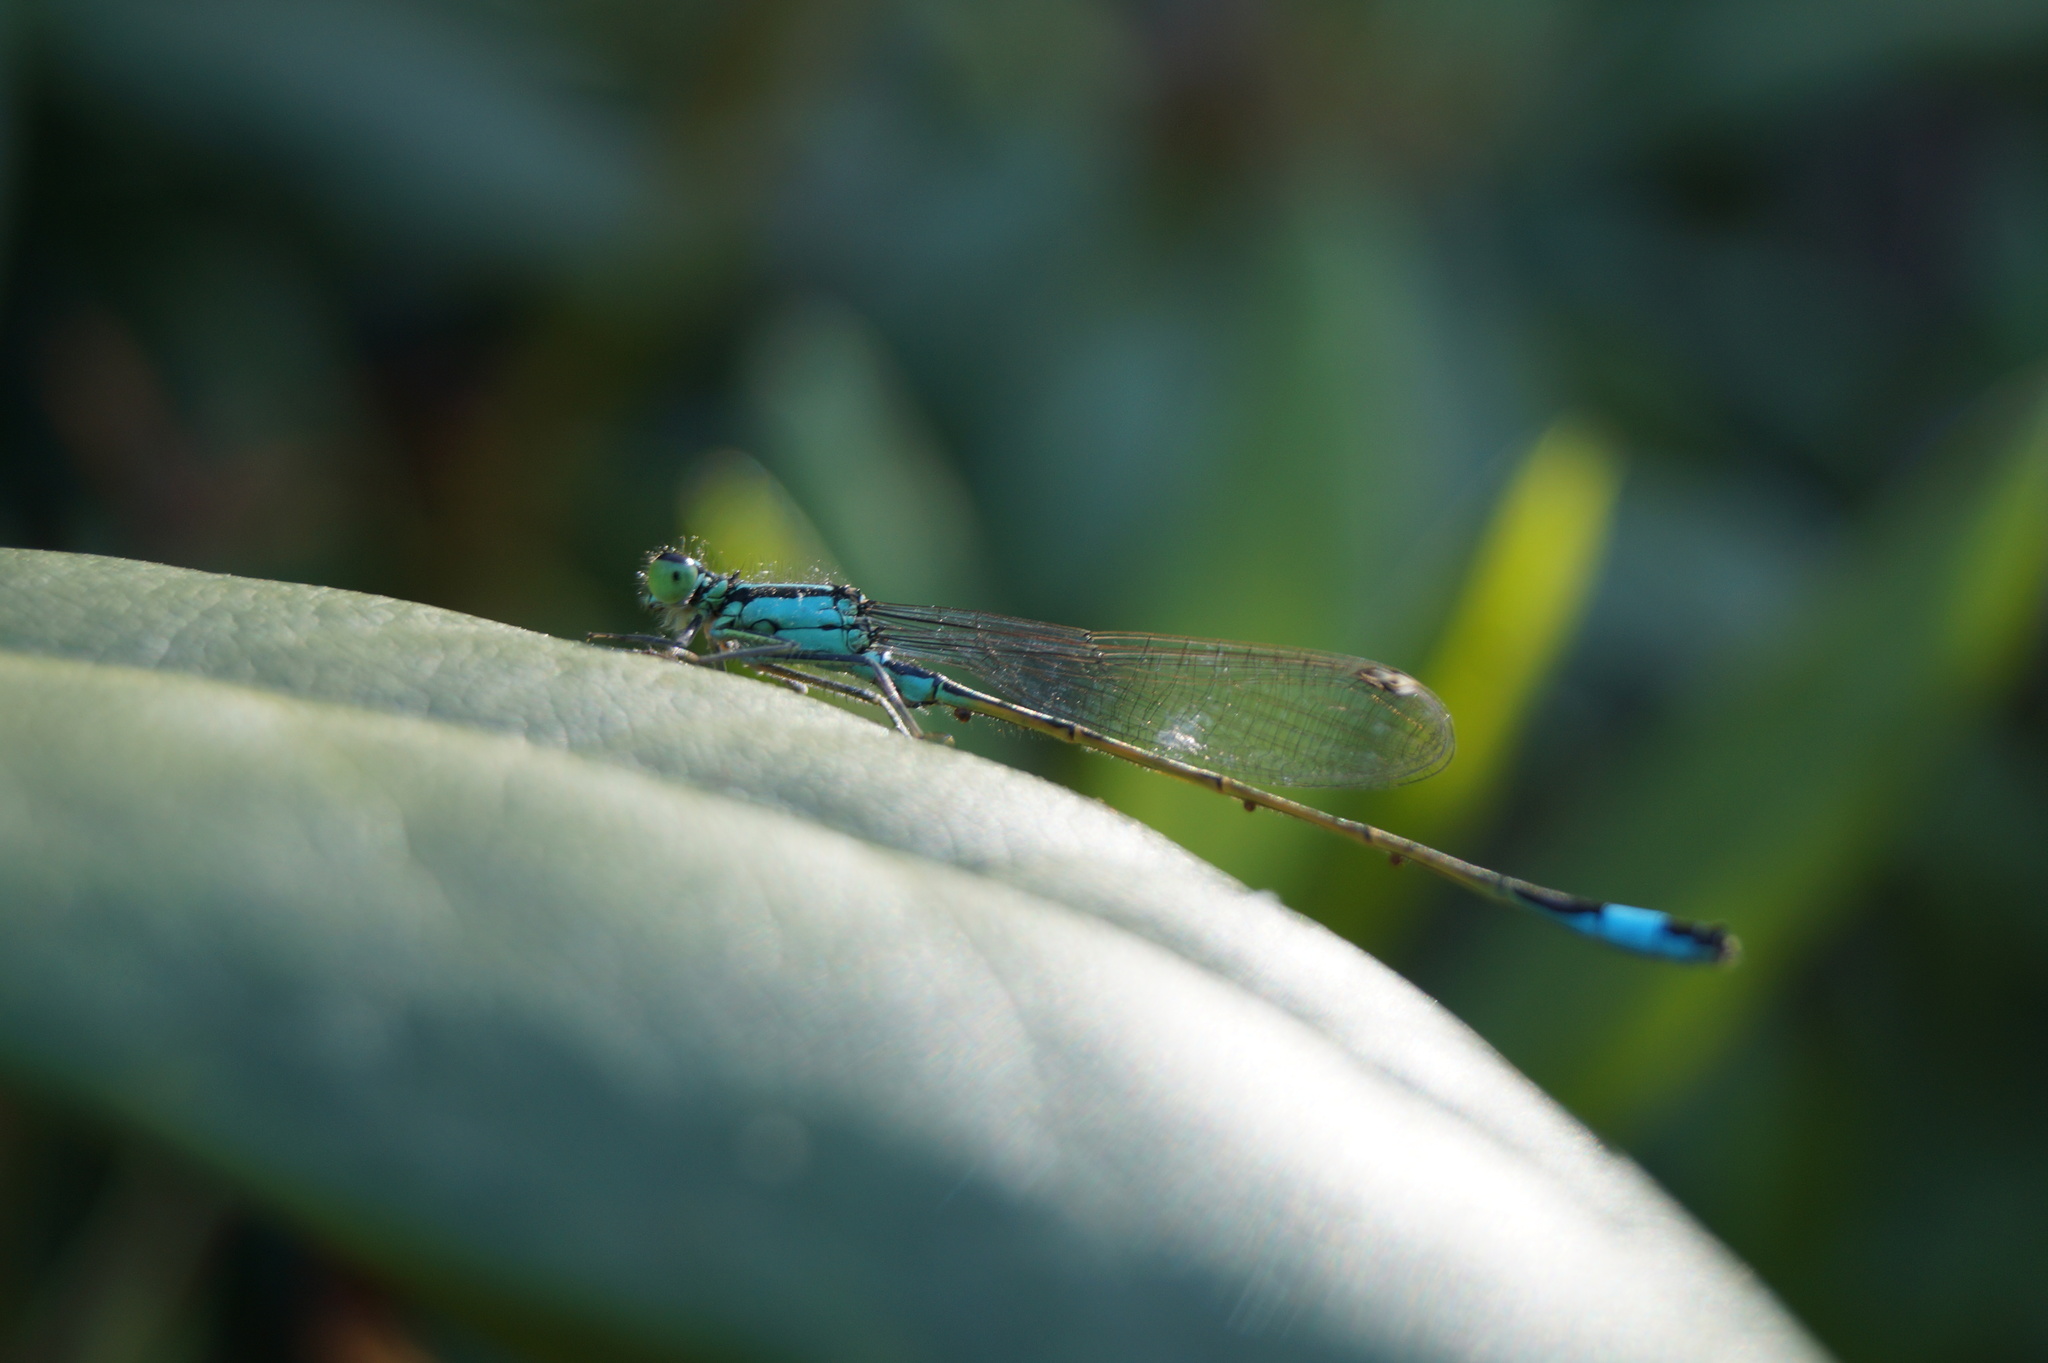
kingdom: Animalia
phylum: Arthropoda
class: Insecta
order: Odonata
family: Coenagrionidae
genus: Ischnura
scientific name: Ischnura elegans
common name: Blue-tailed damselfly
